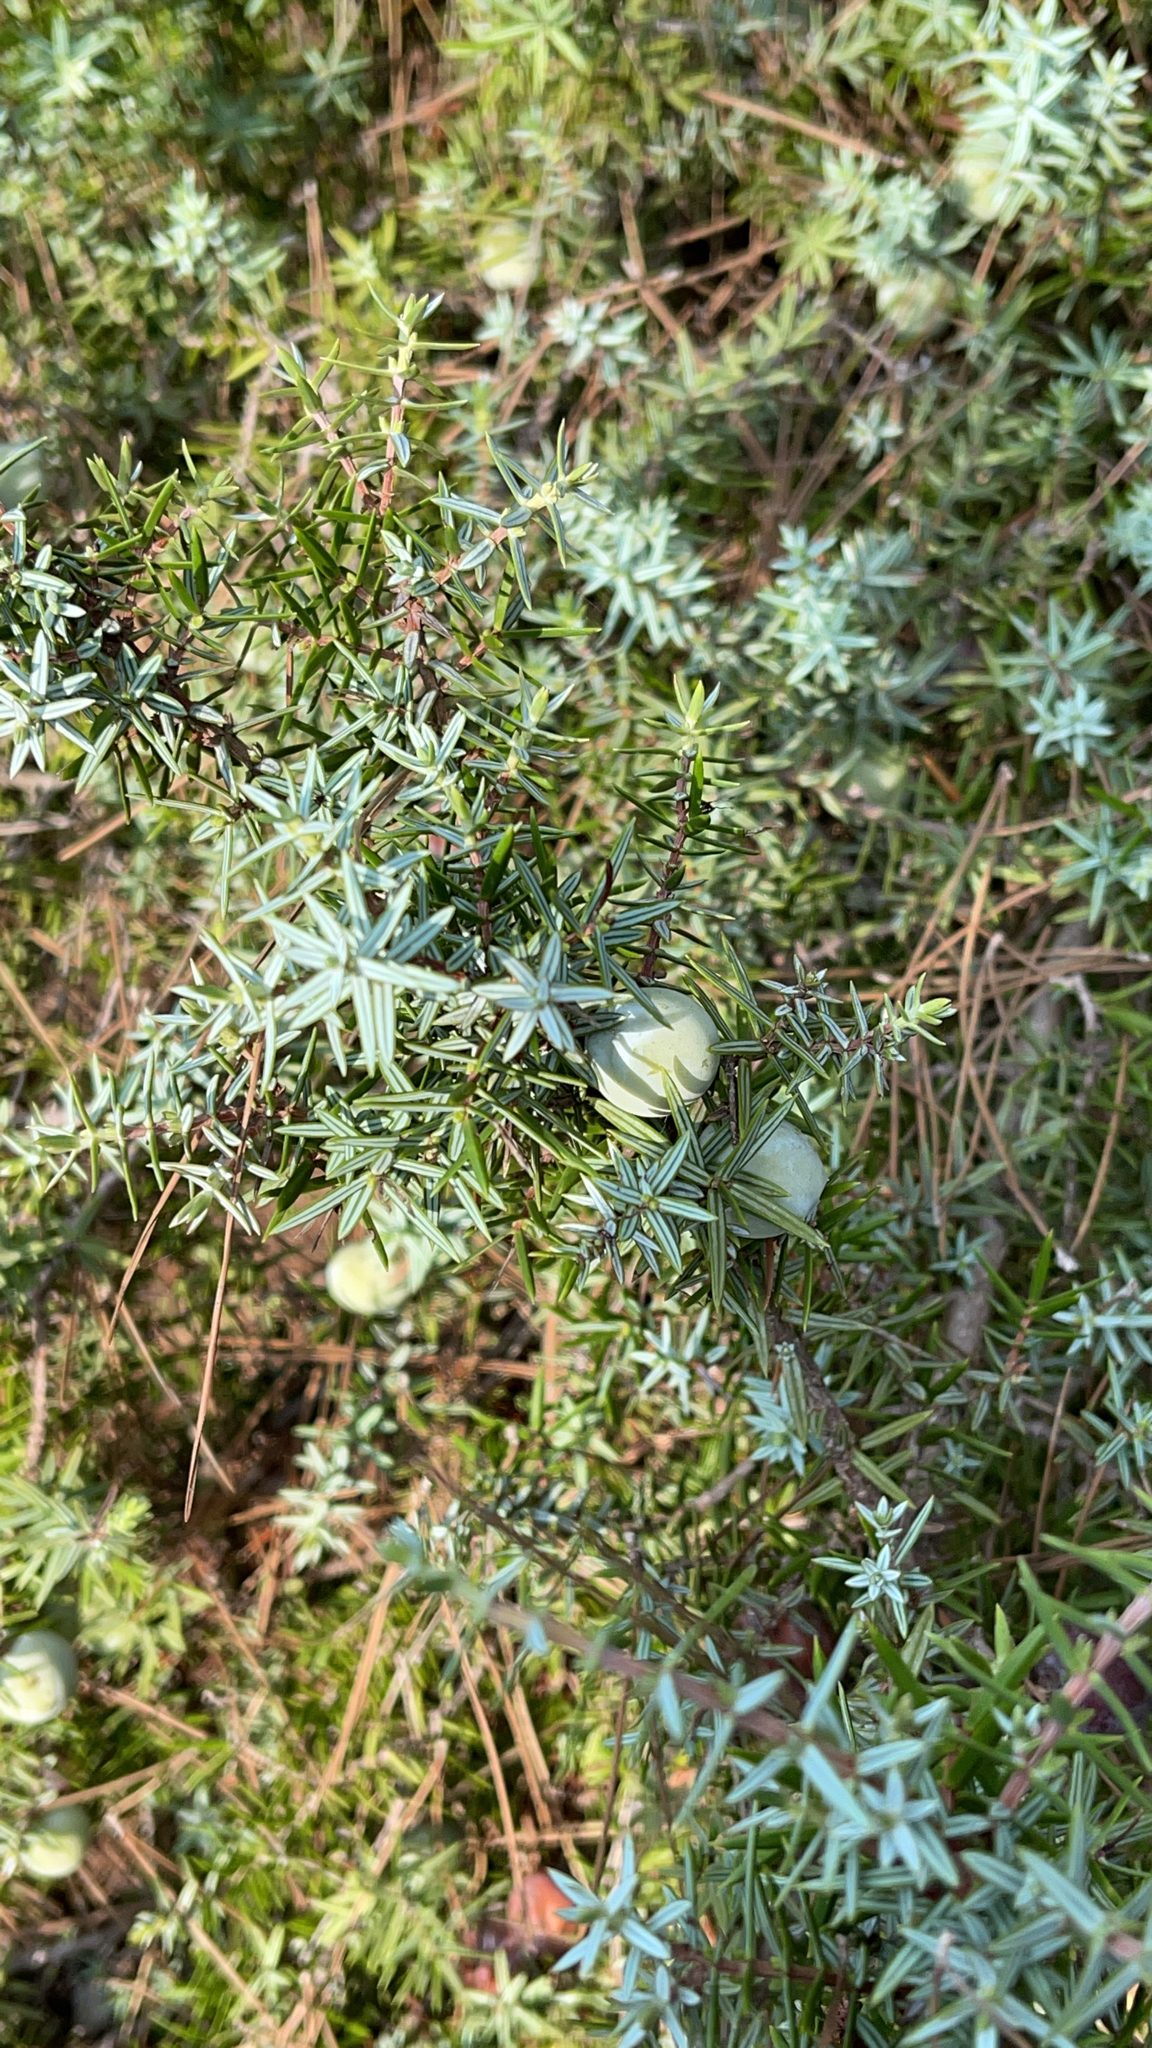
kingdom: Plantae
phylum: Tracheophyta
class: Pinopsida
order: Pinales
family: Cupressaceae
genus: Juniperus
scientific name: Juniperus oxycedrus
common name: Prickly juniper
